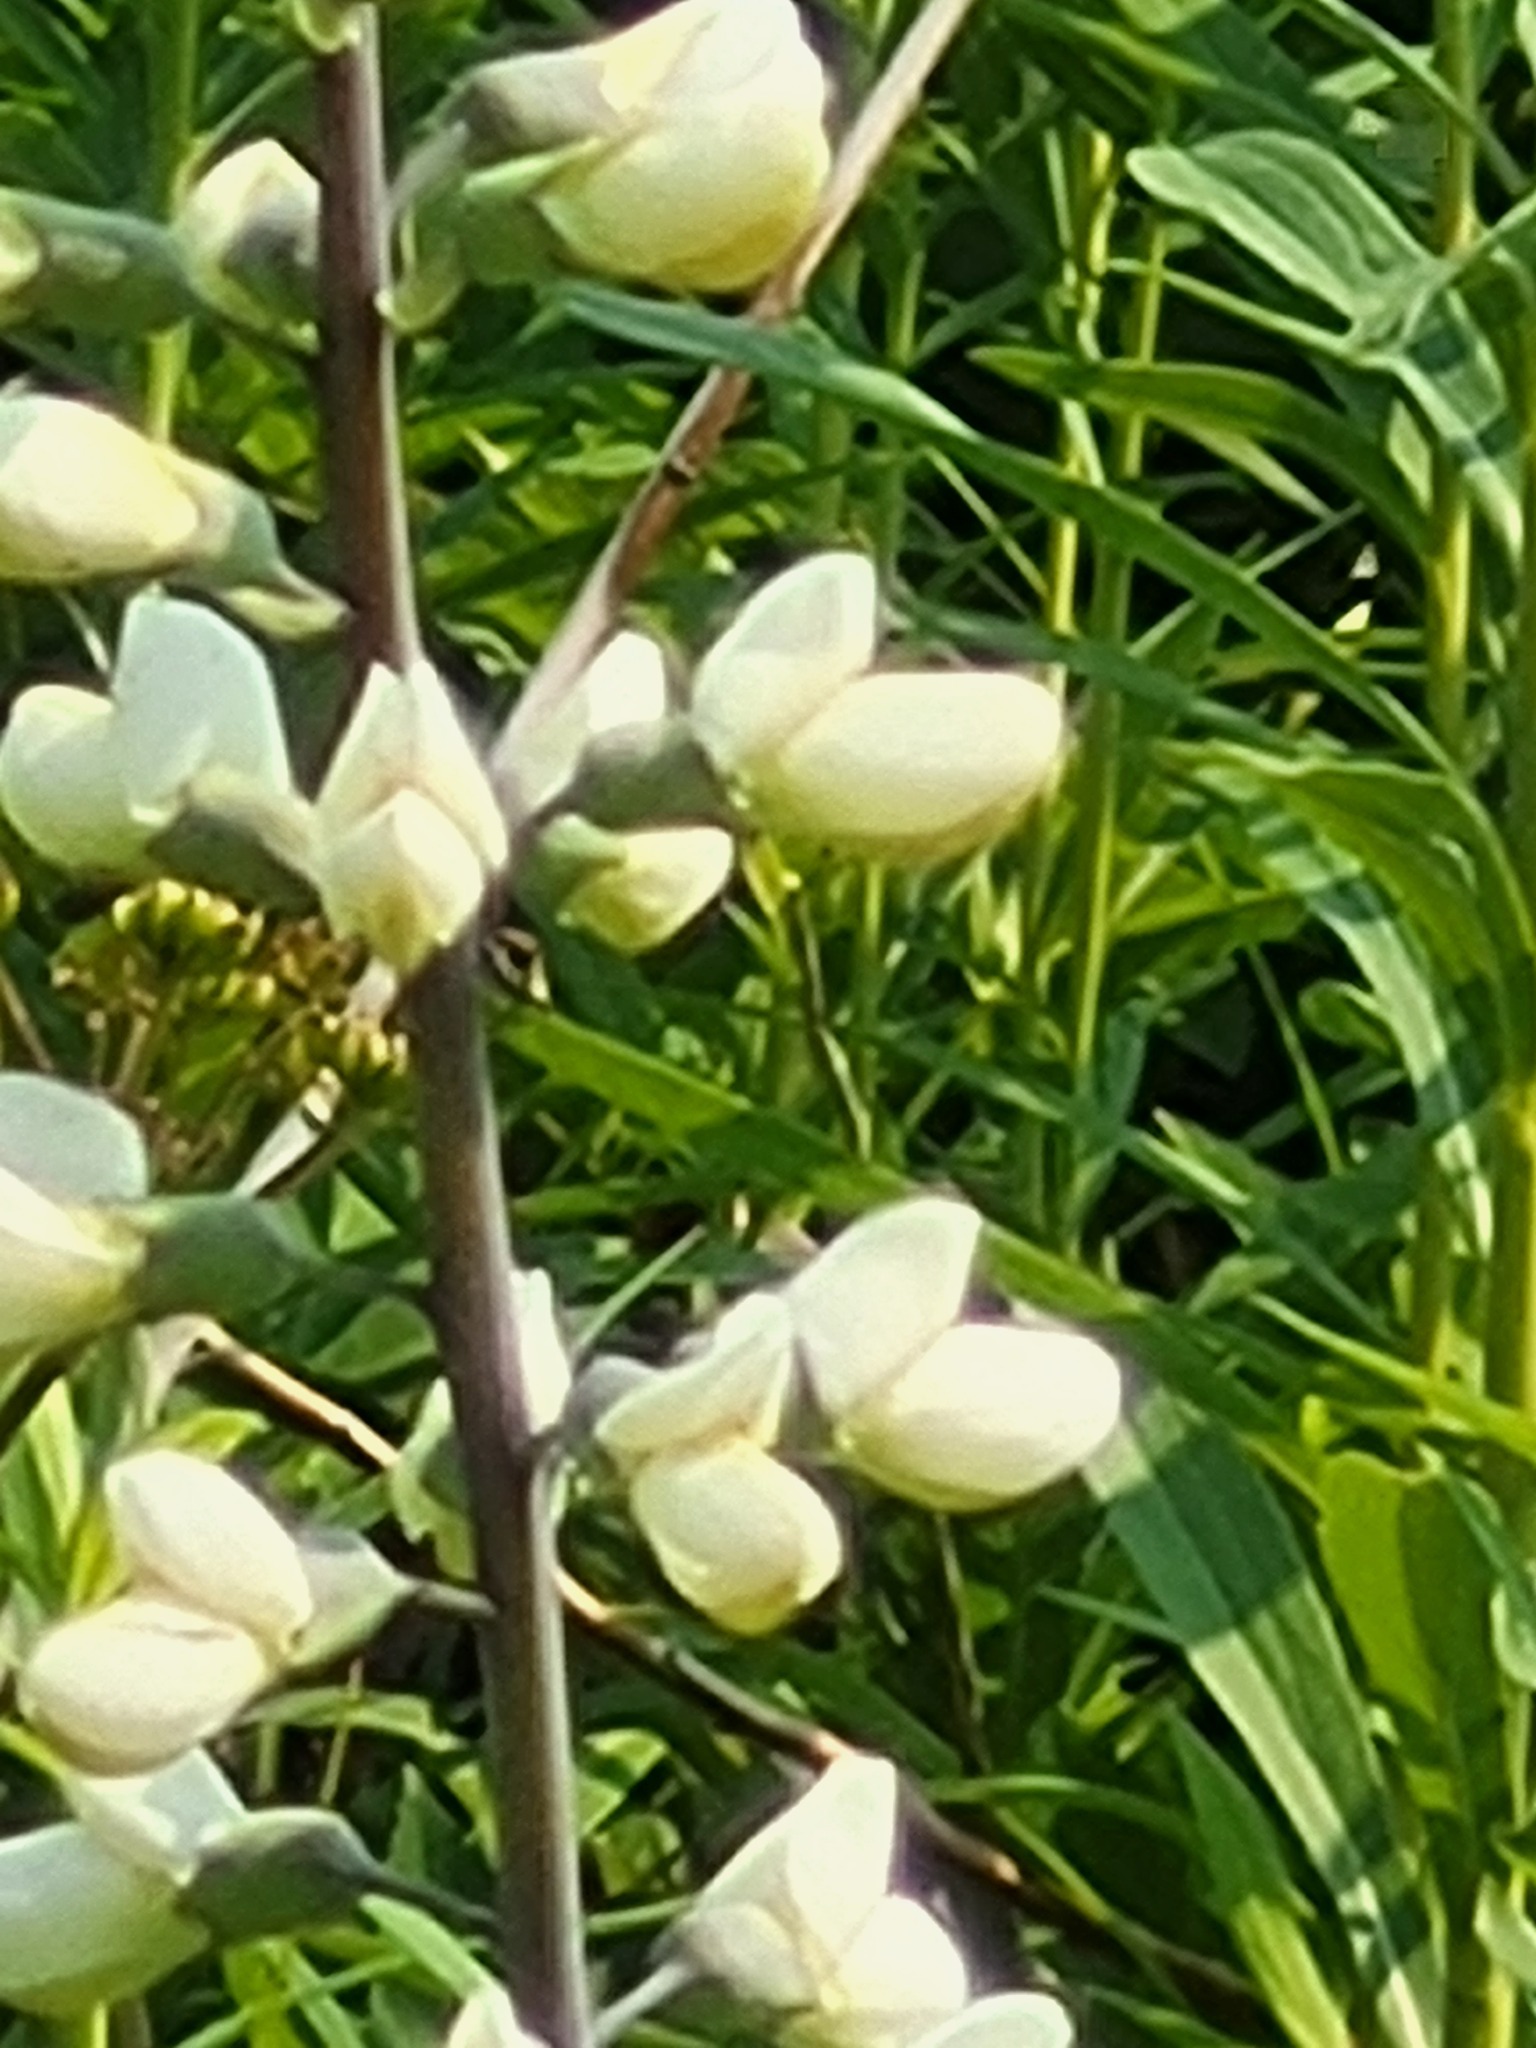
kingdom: Plantae
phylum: Tracheophyta
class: Magnoliopsida
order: Fabales
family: Fabaceae
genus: Baptisia
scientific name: Baptisia alba
